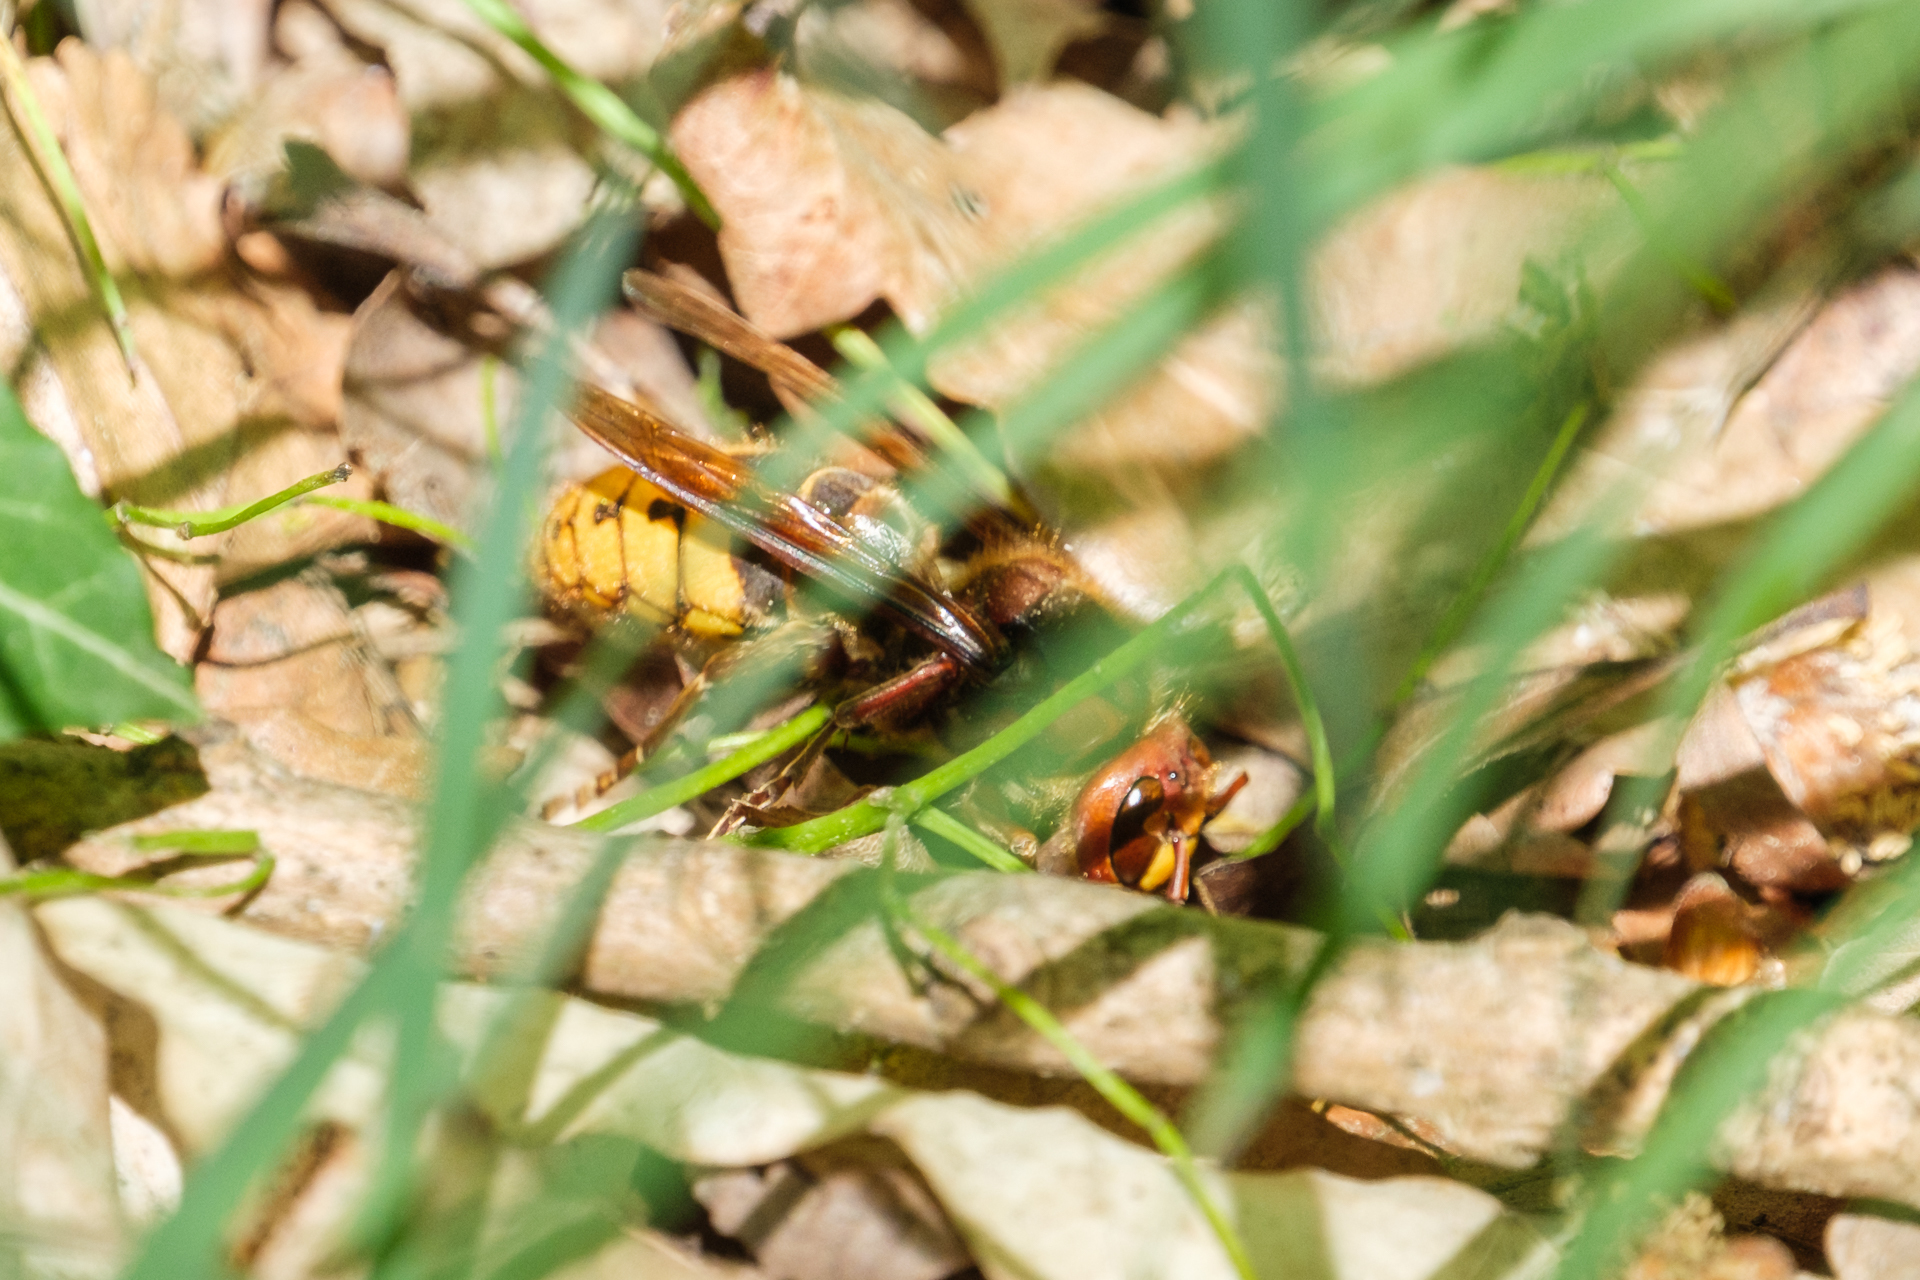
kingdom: Animalia
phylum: Arthropoda
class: Insecta
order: Hymenoptera
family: Vespidae
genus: Vespa
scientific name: Vespa crabro
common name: Hornet
